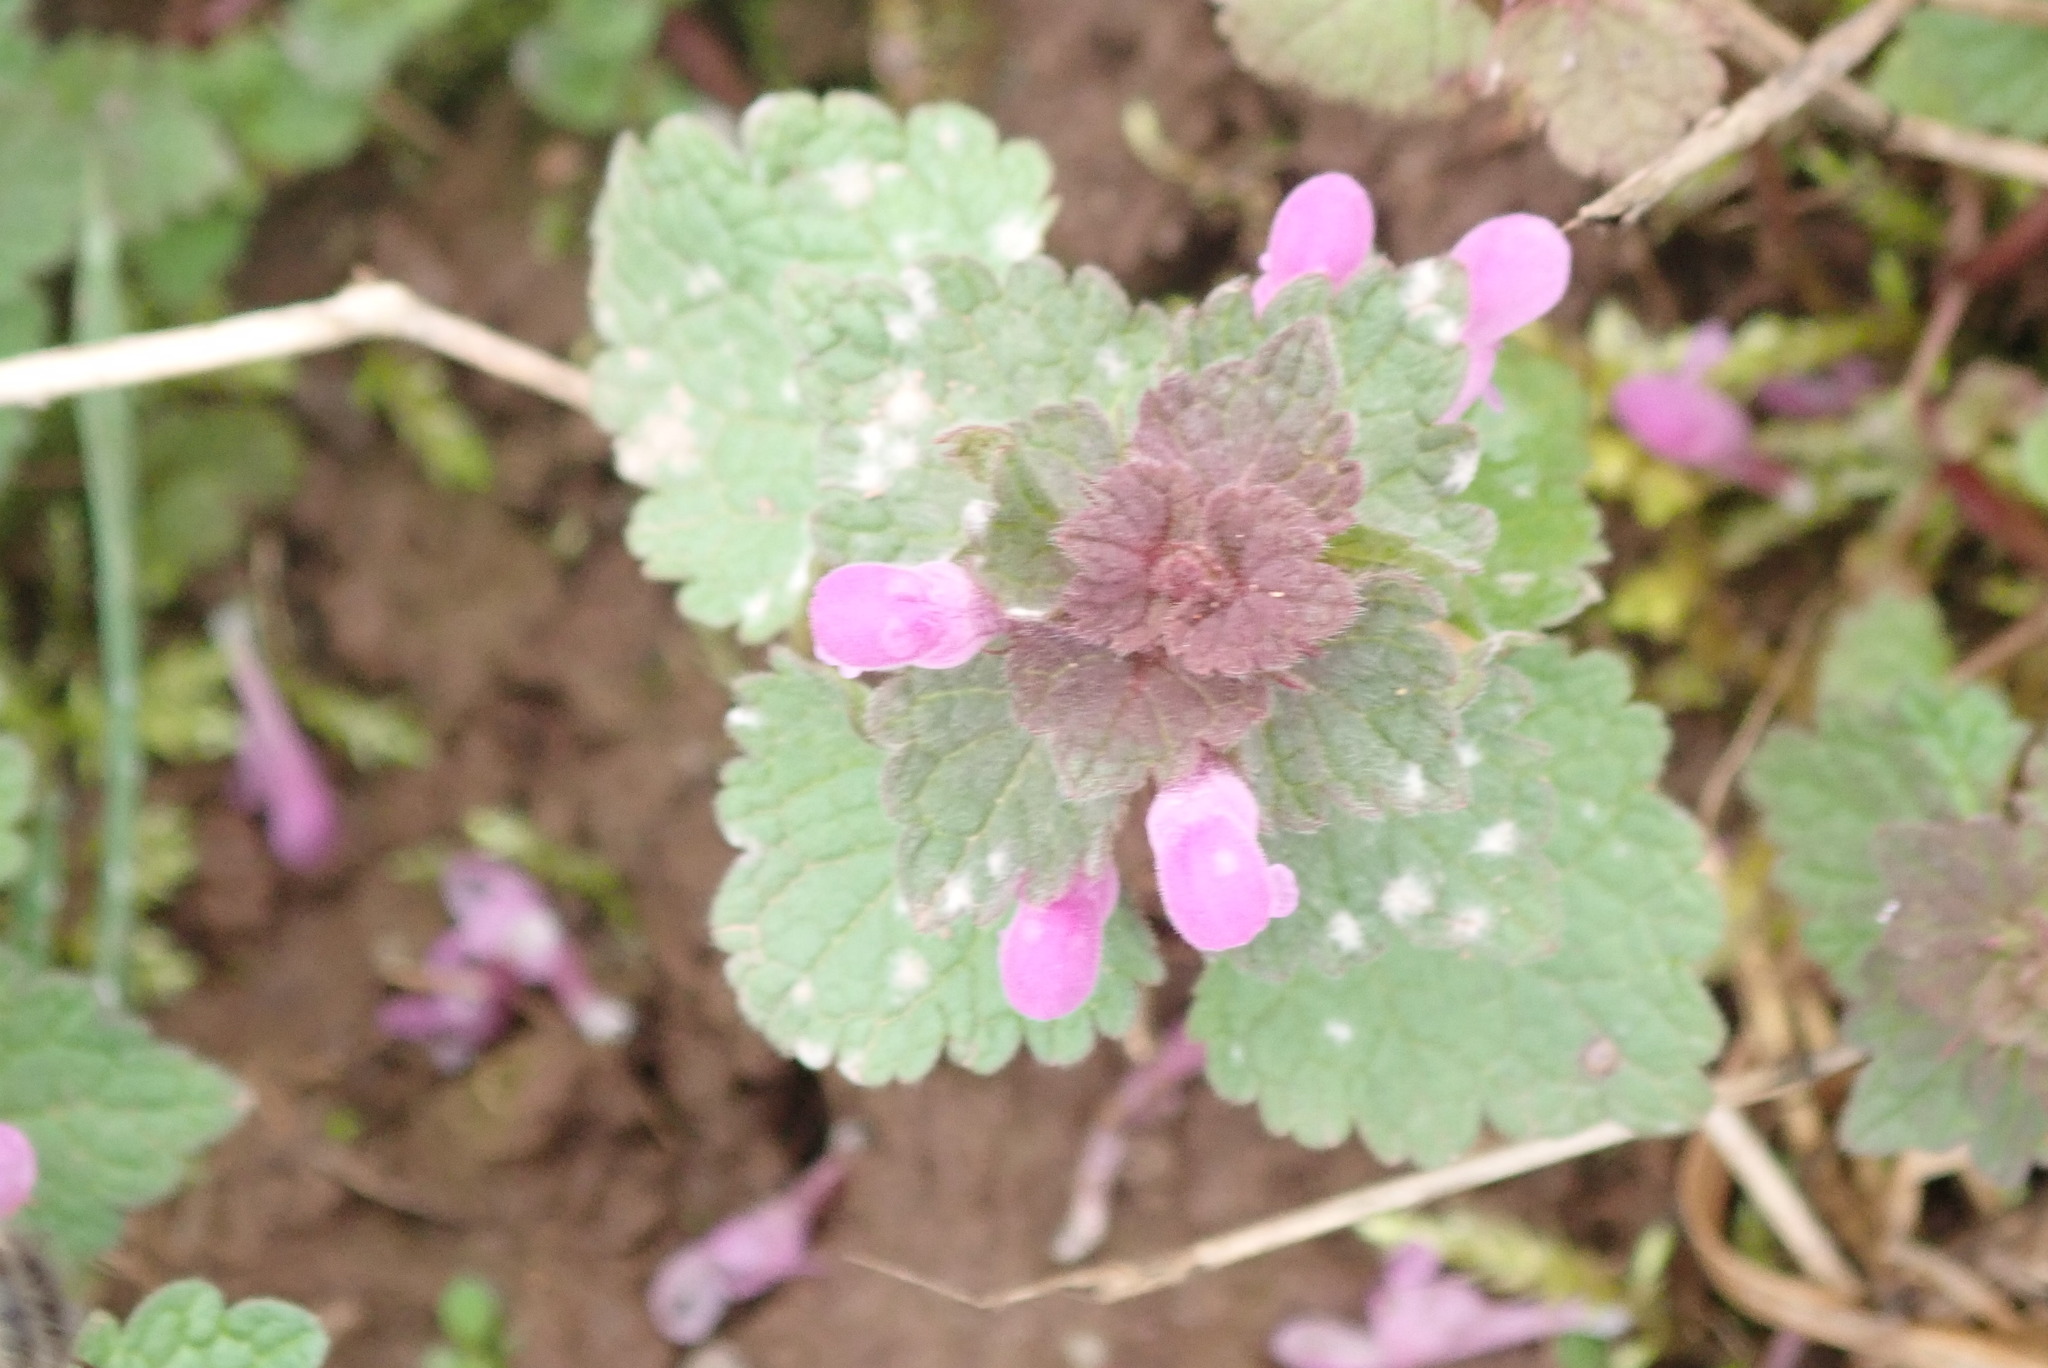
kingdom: Plantae
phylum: Tracheophyta
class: Magnoliopsida
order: Lamiales
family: Lamiaceae
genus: Lamium
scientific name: Lamium purpureum
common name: Red dead-nettle
